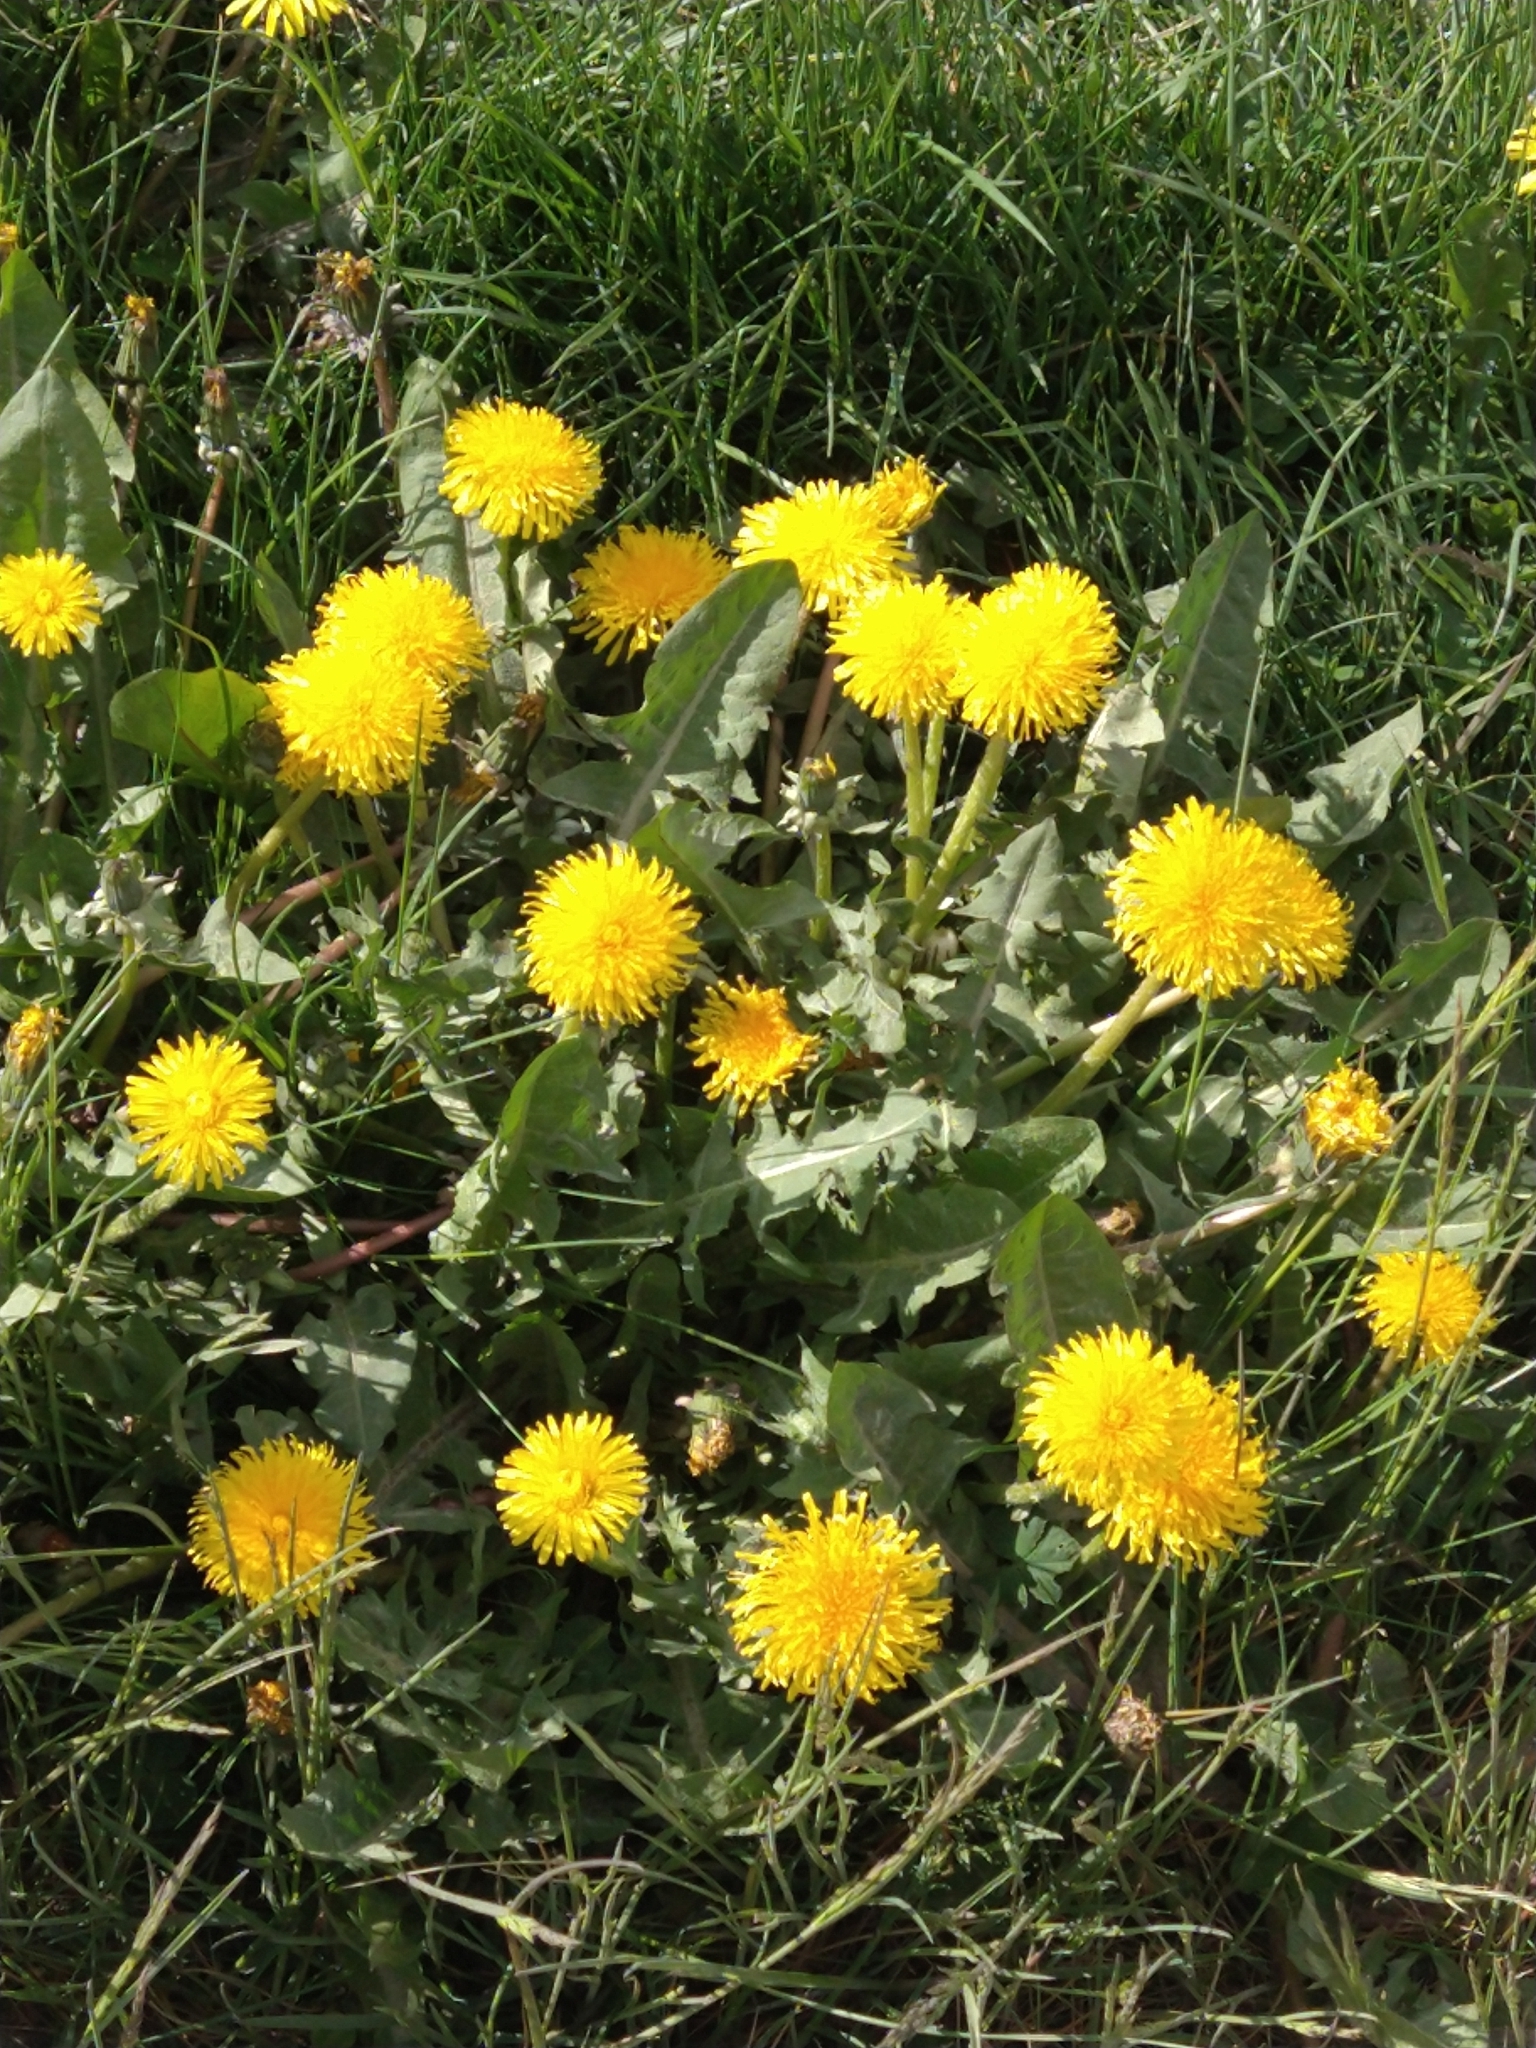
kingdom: Plantae
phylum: Tracheophyta
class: Magnoliopsida
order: Asterales
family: Asteraceae
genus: Taraxacum
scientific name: Taraxacum officinale
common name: Common dandelion
